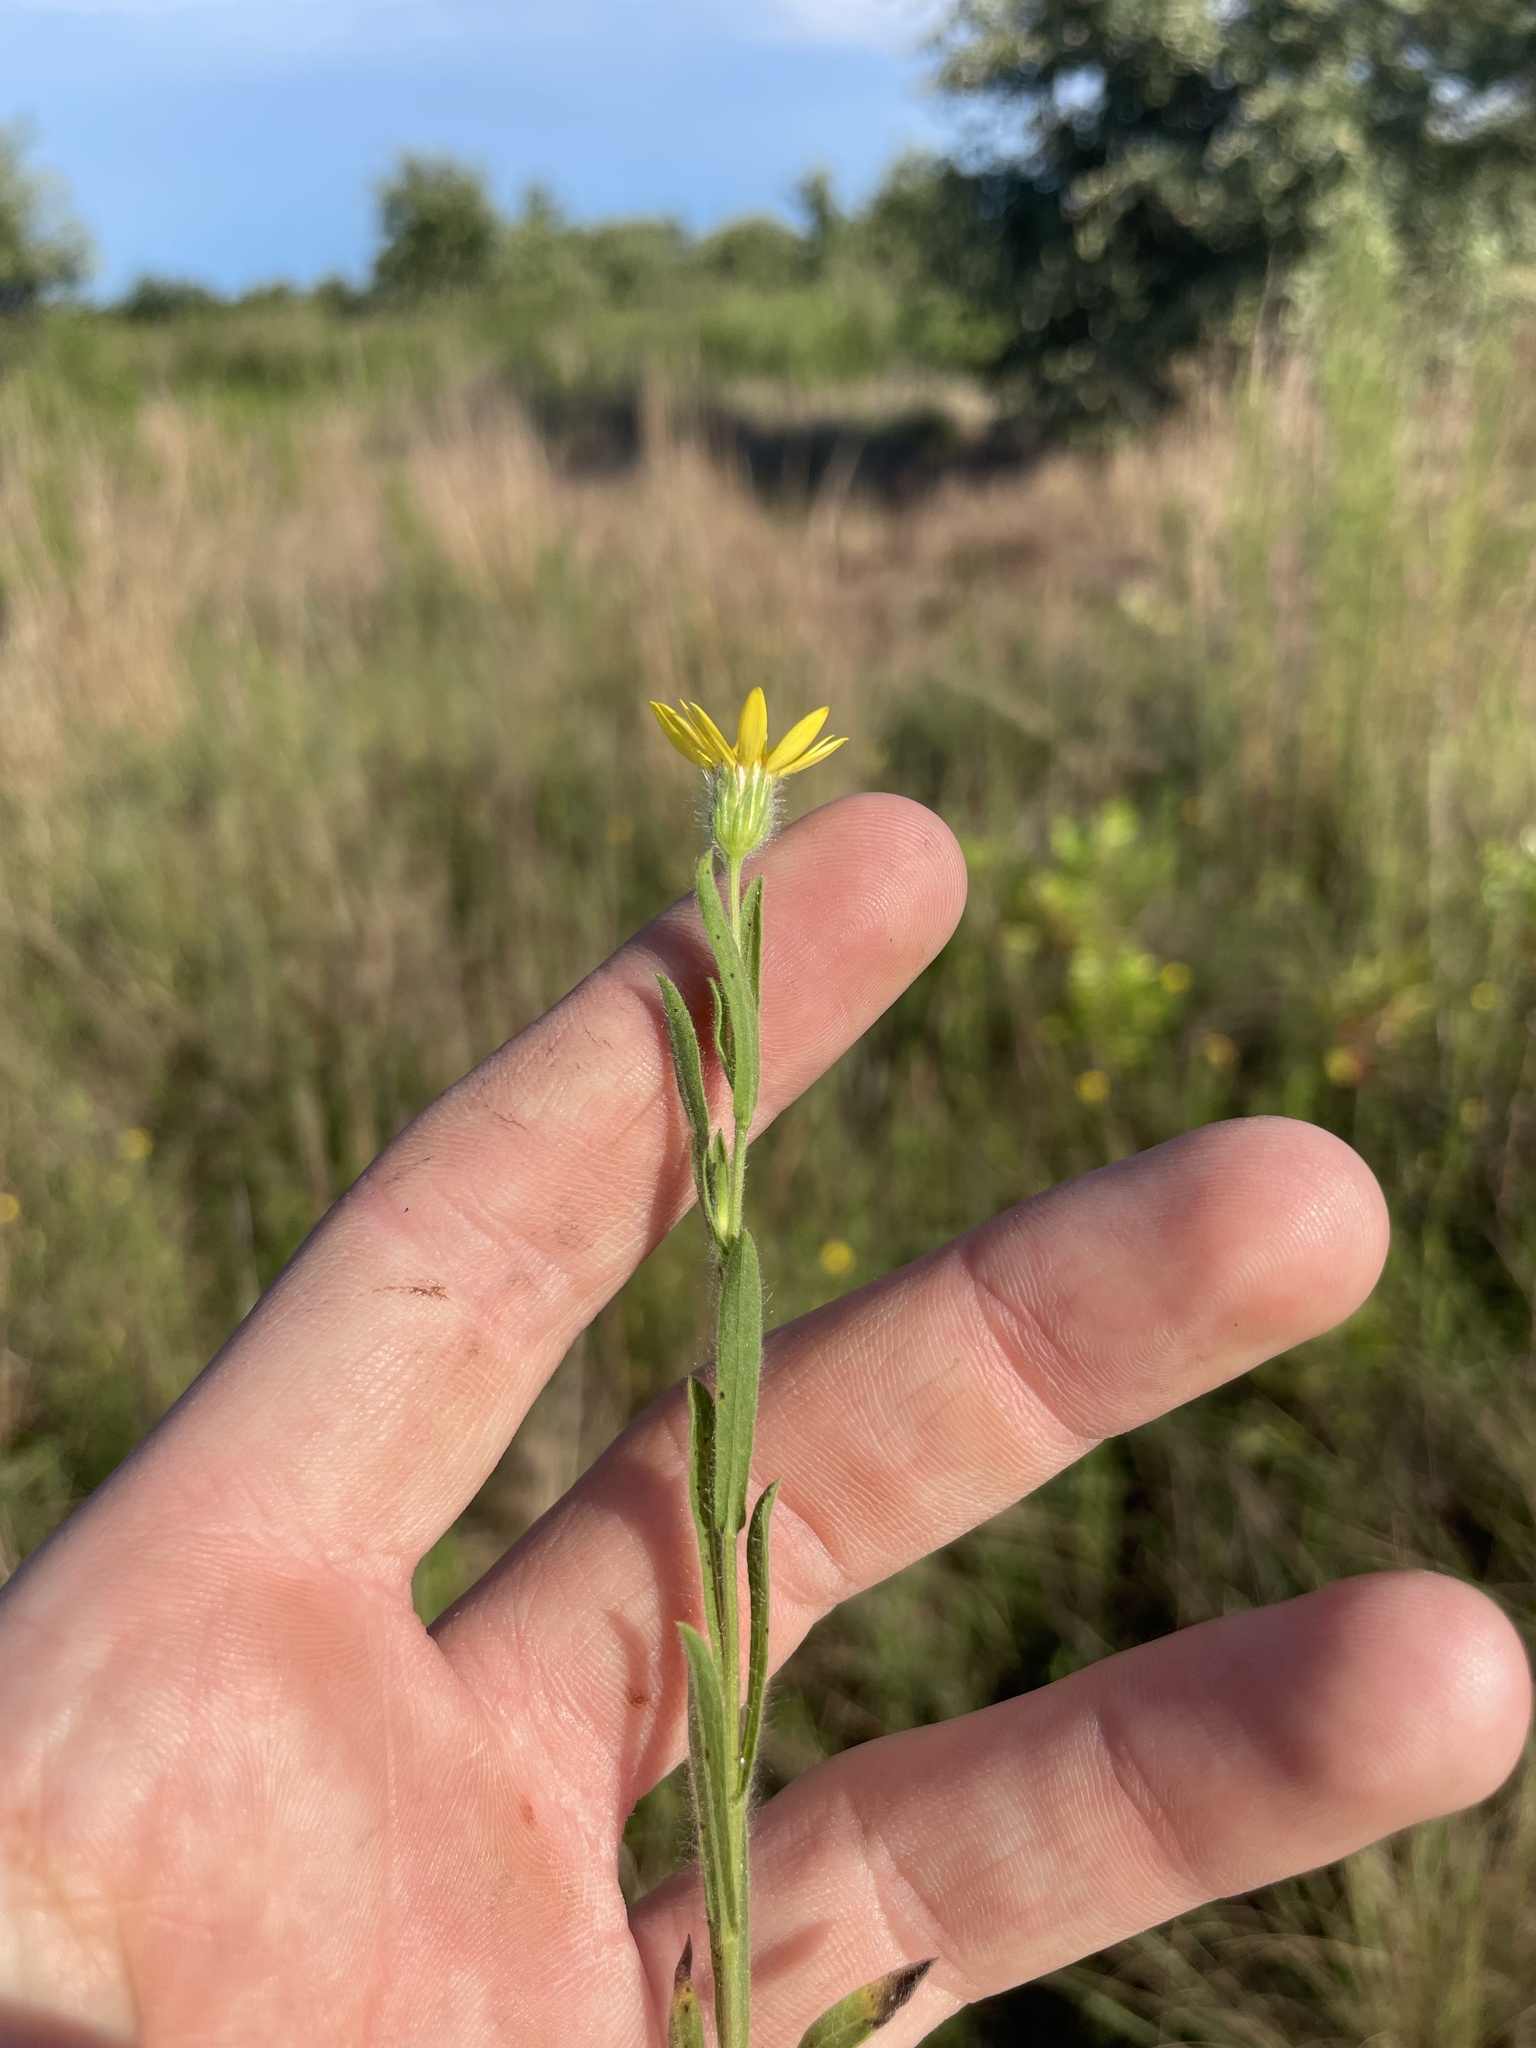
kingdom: Plantae
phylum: Tracheophyta
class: Magnoliopsida
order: Asterales
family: Asteraceae
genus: Bradburia
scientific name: Bradburia pilosa
